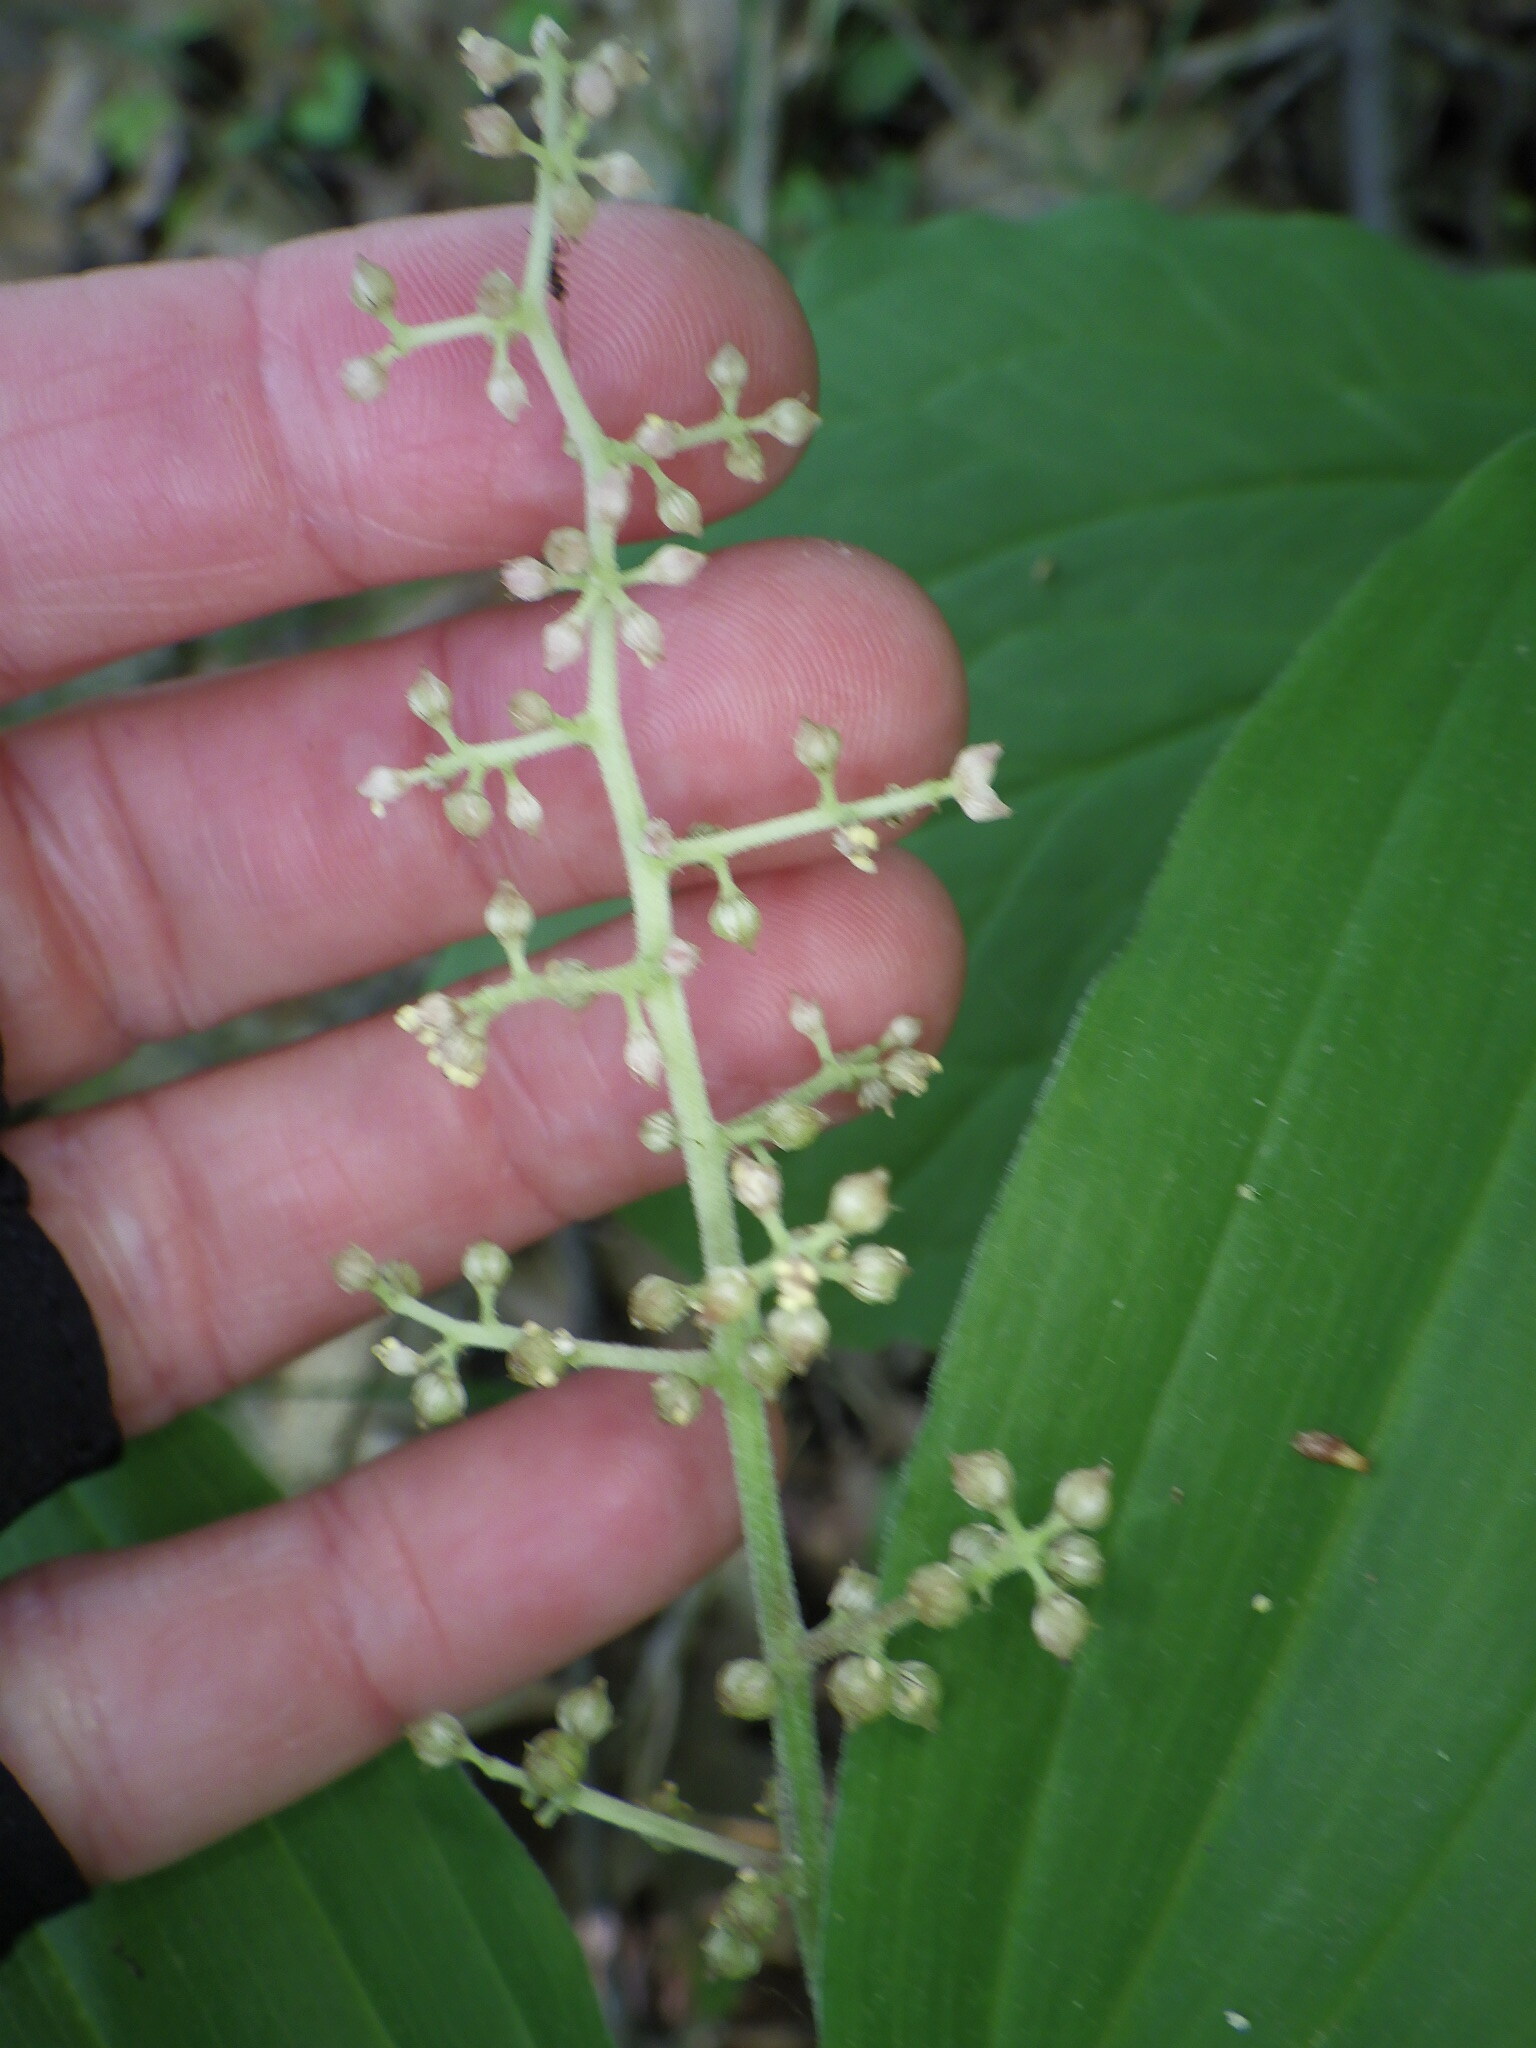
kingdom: Plantae
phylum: Tracheophyta
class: Liliopsida
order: Asparagales
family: Asparagaceae
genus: Maianthemum
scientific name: Maianthemum racemosum
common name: False spikenard
